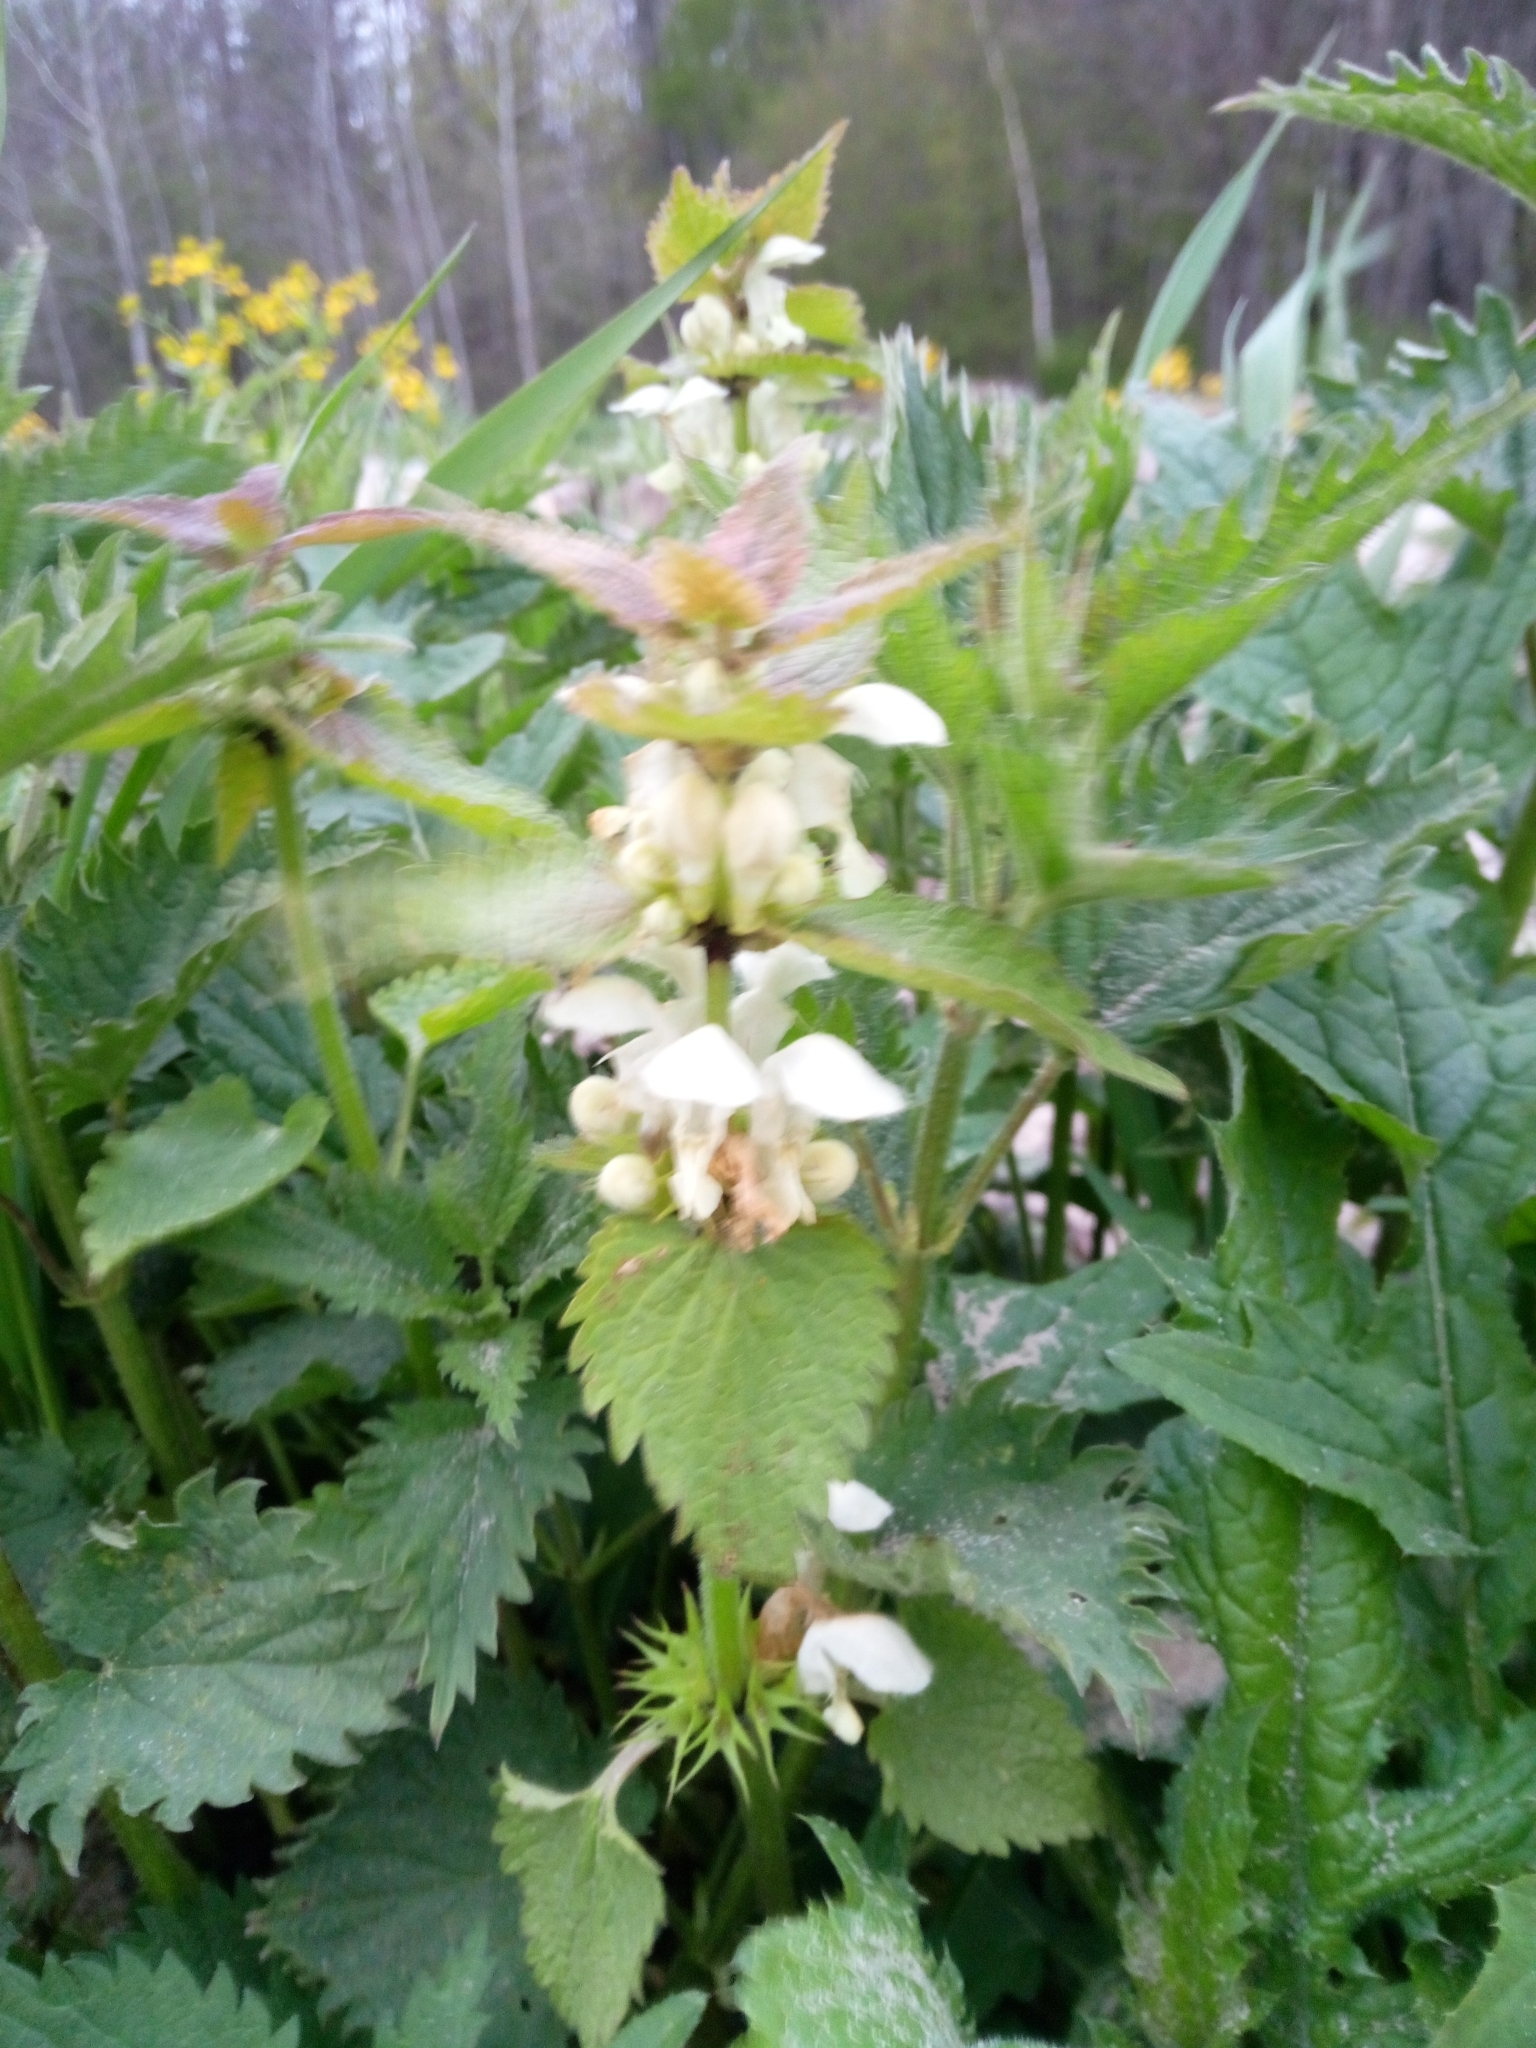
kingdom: Plantae
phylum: Tracheophyta
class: Magnoliopsida
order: Lamiales
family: Lamiaceae
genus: Lamium
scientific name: Lamium album
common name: White dead-nettle
